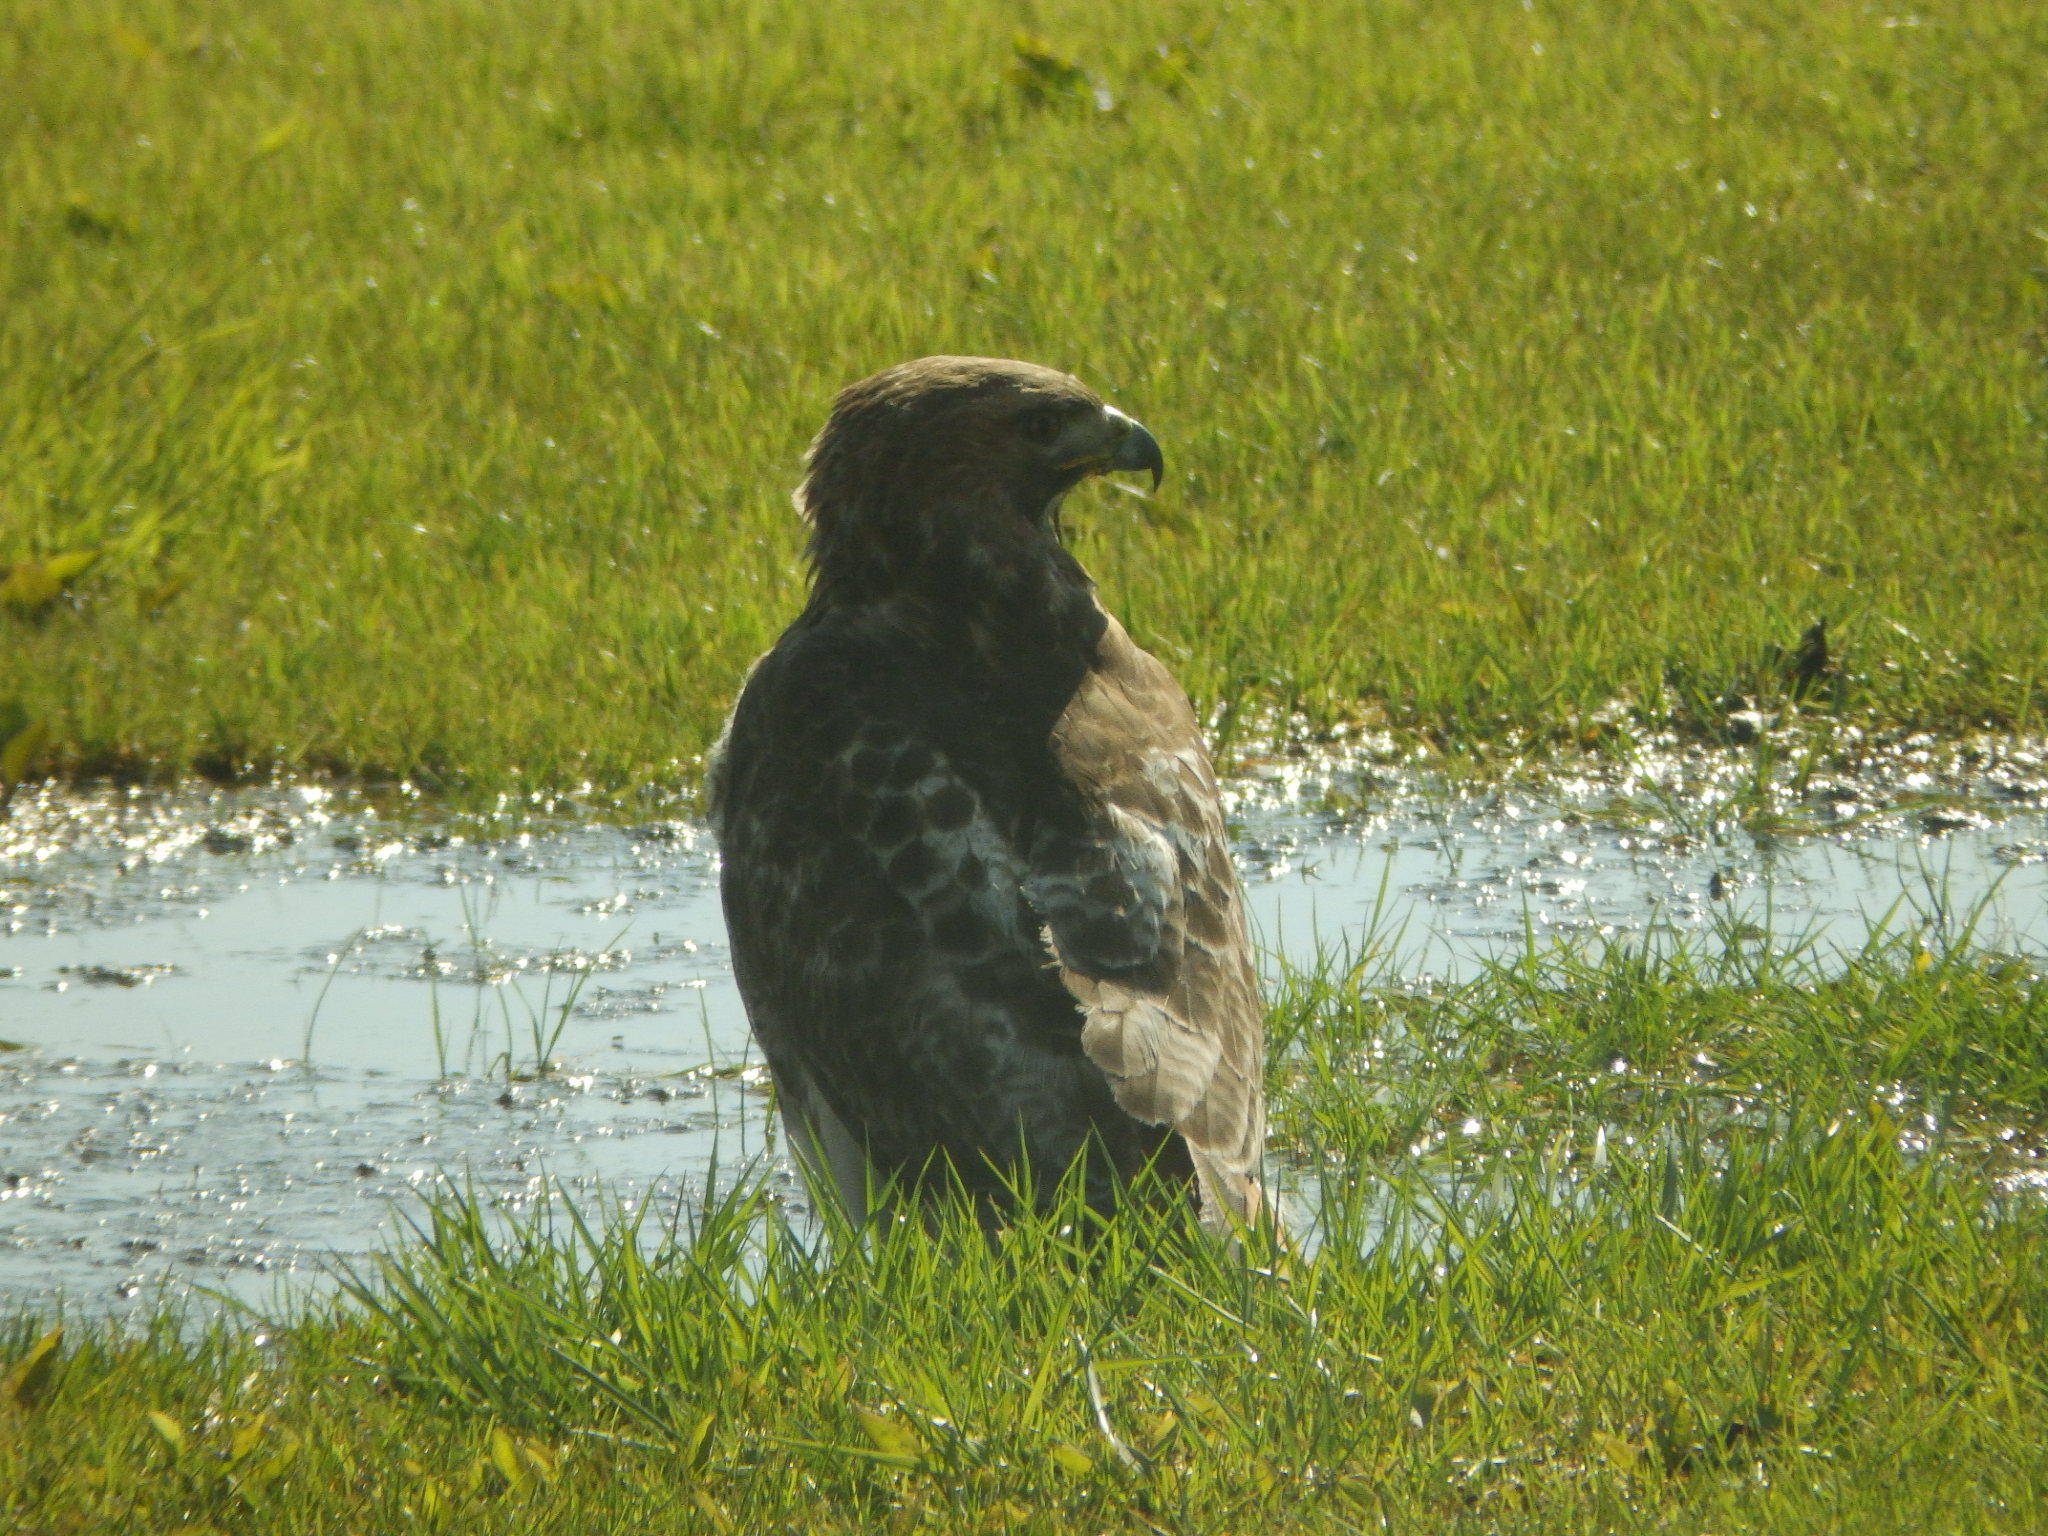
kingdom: Animalia
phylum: Chordata
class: Aves
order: Accipitriformes
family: Accipitridae
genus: Buteo
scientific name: Buteo jamaicensis
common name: Red-tailed hawk
